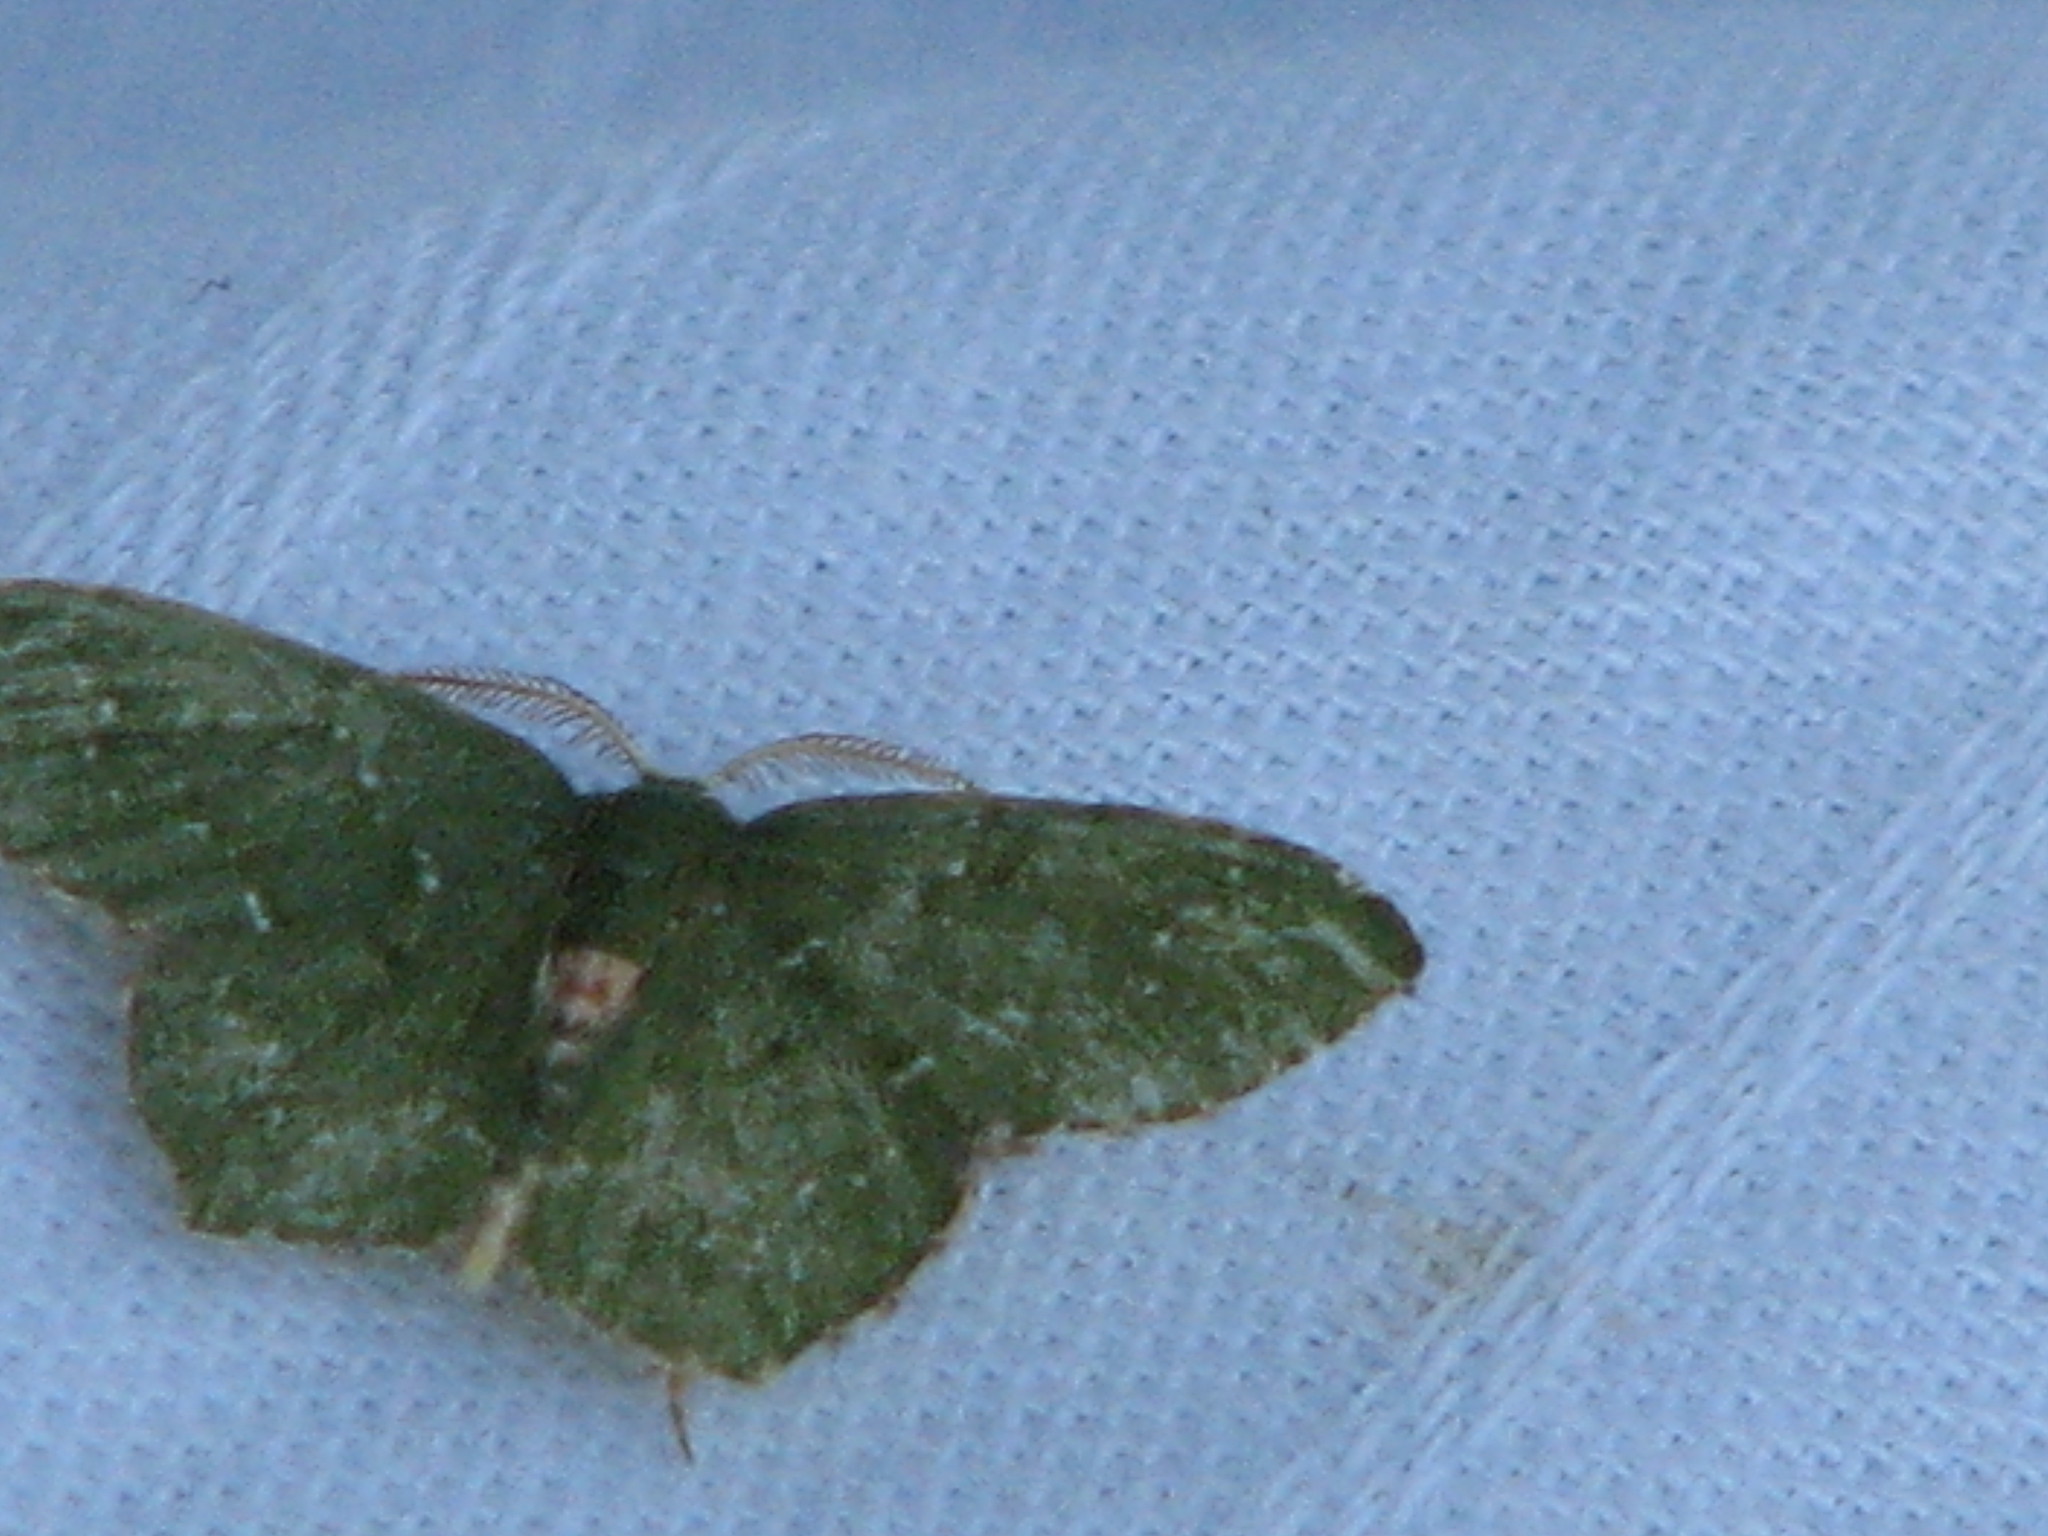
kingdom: Animalia
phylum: Arthropoda
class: Insecta
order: Lepidoptera
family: Geometridae
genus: Chloropteryx
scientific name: Chloropteryx nordicaria
